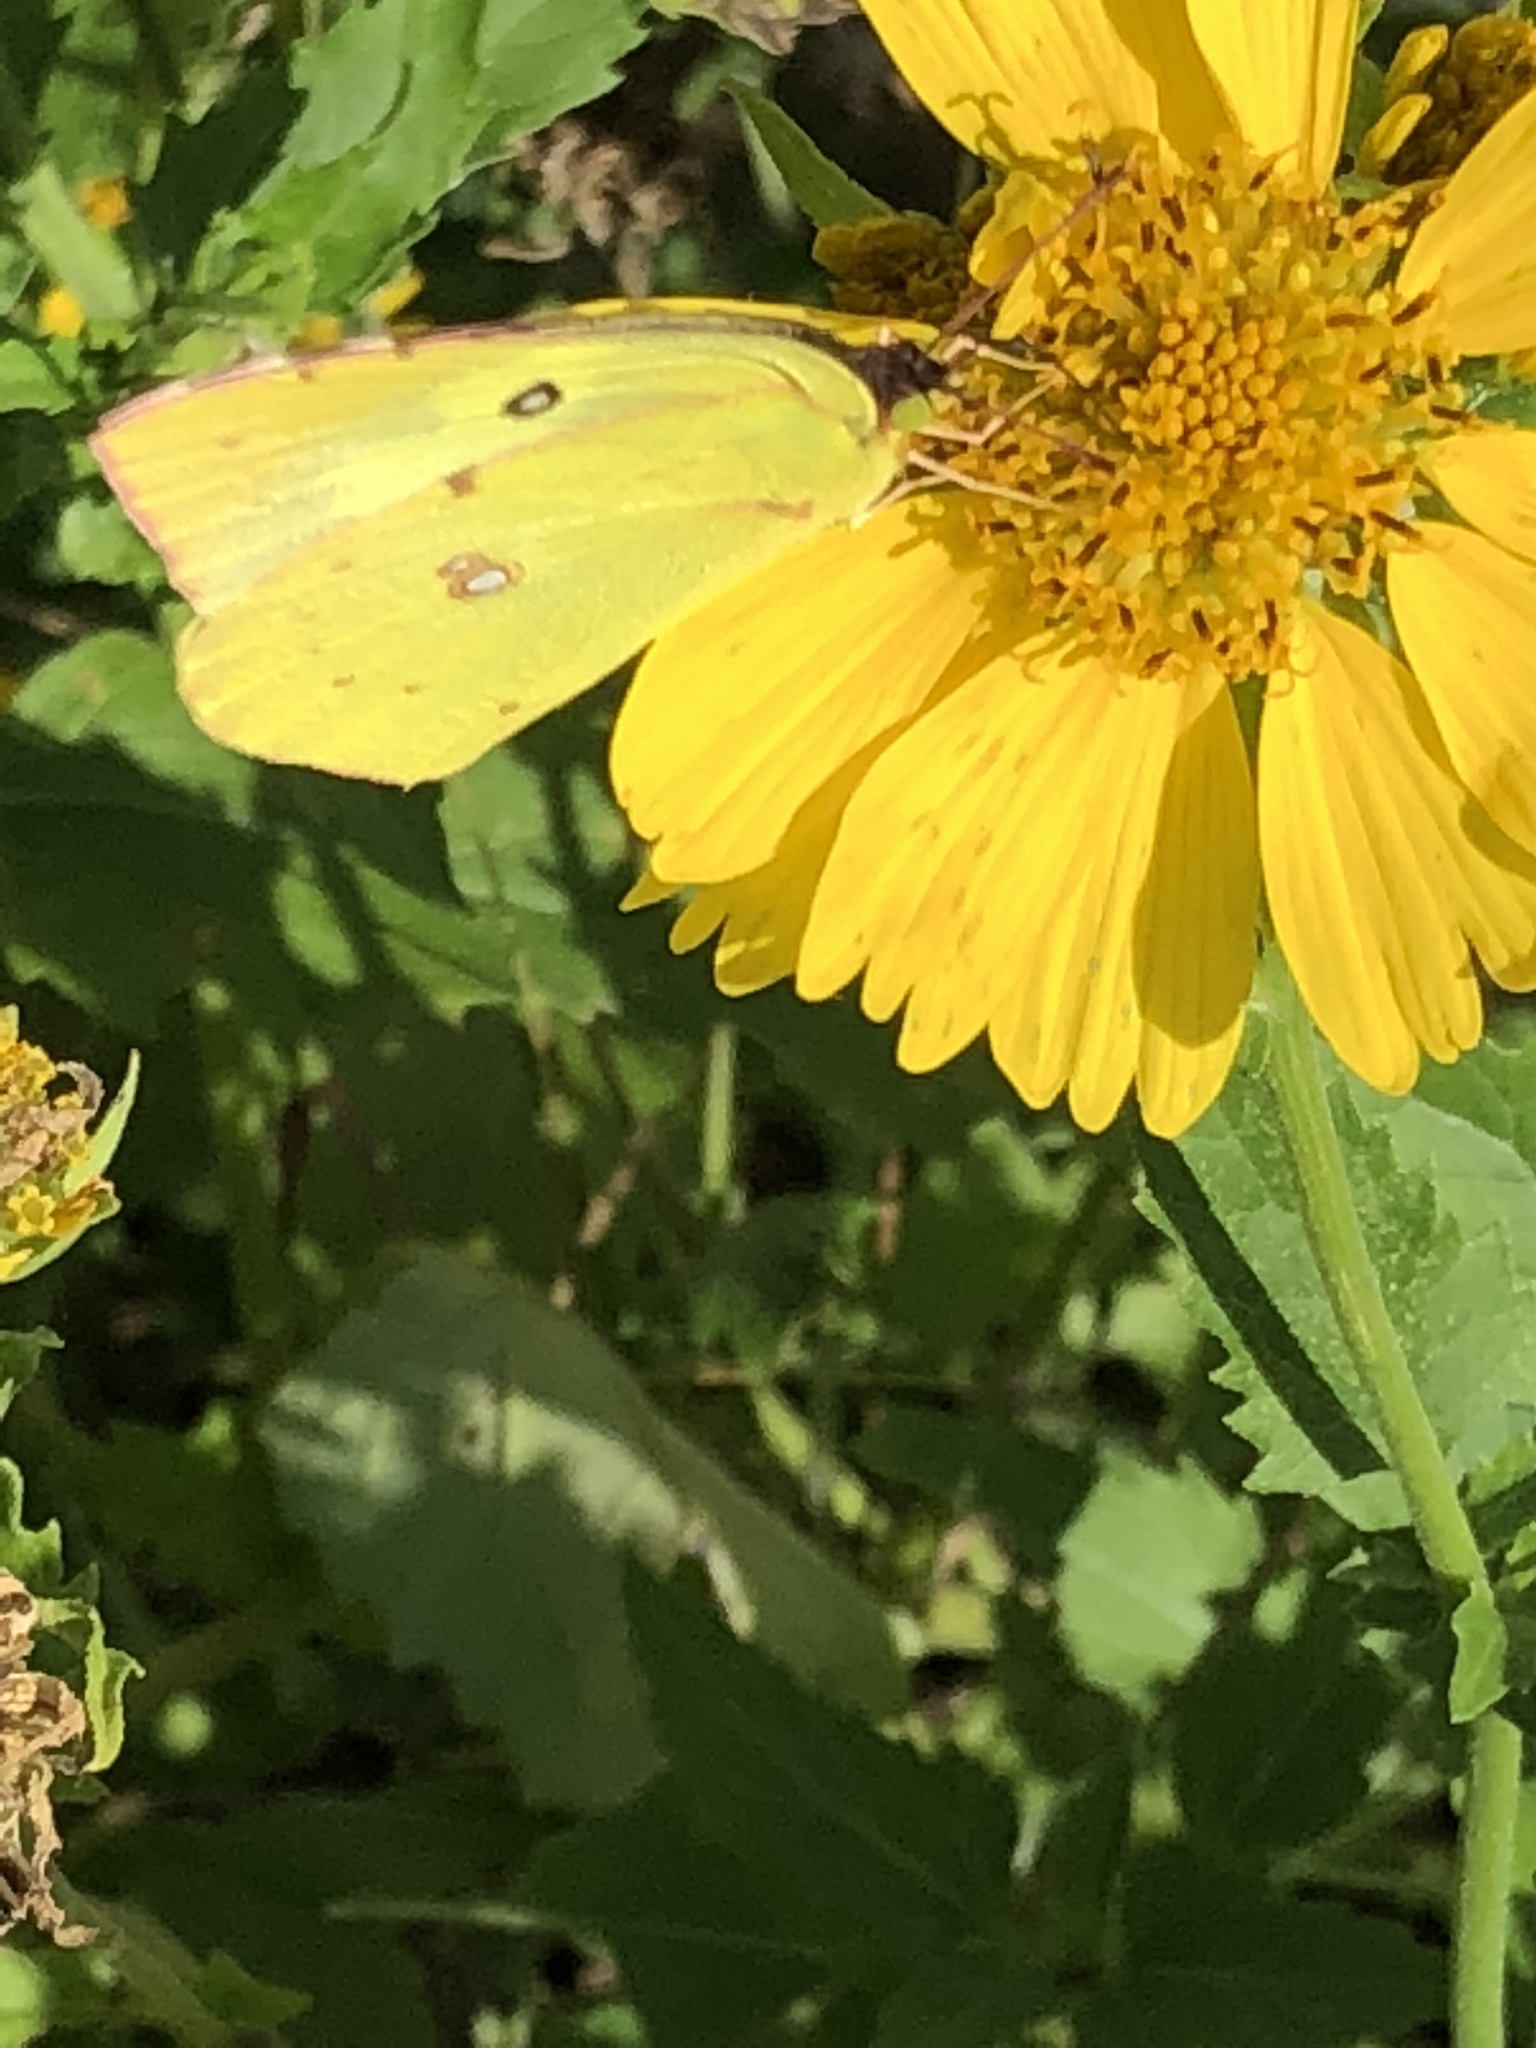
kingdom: Animalia
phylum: Arthropoda
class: Insecta
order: Lepidoptera
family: Pieridae
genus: Zerene
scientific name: Zerene cesonia
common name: Southern dogface
